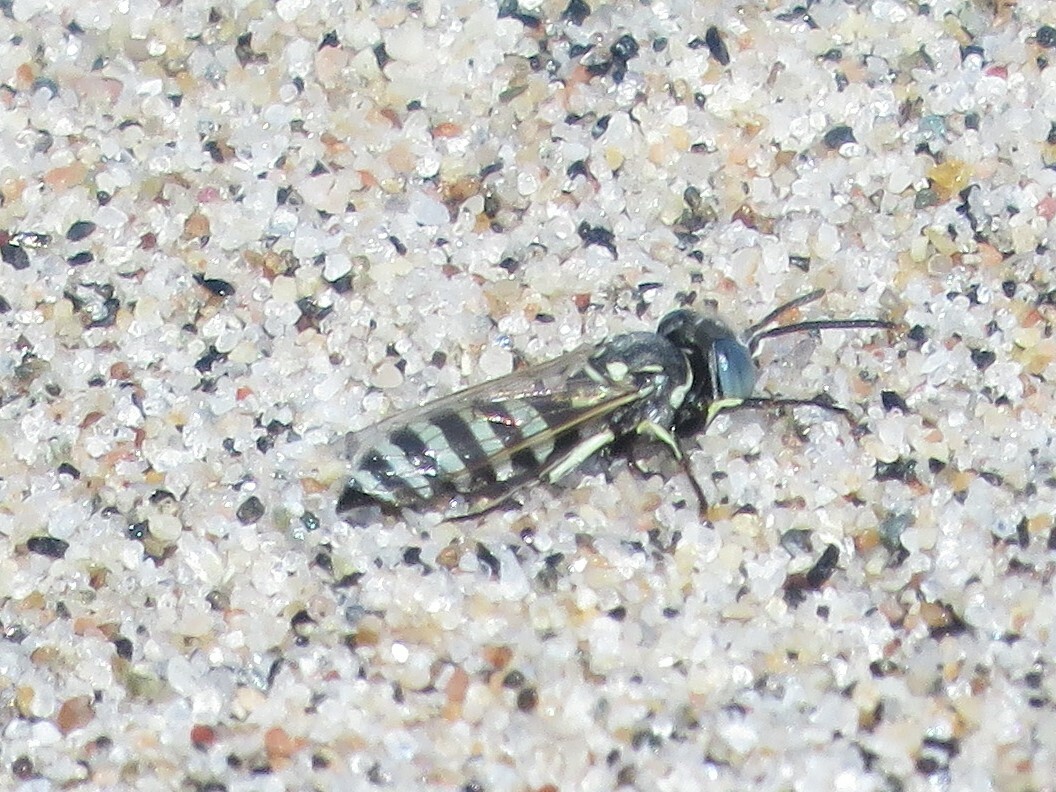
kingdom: Animalia
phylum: Arthropoda
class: Insecta
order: Hymenoptera
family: Crabronidae
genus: Microbembex
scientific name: Microbembex monodonta
